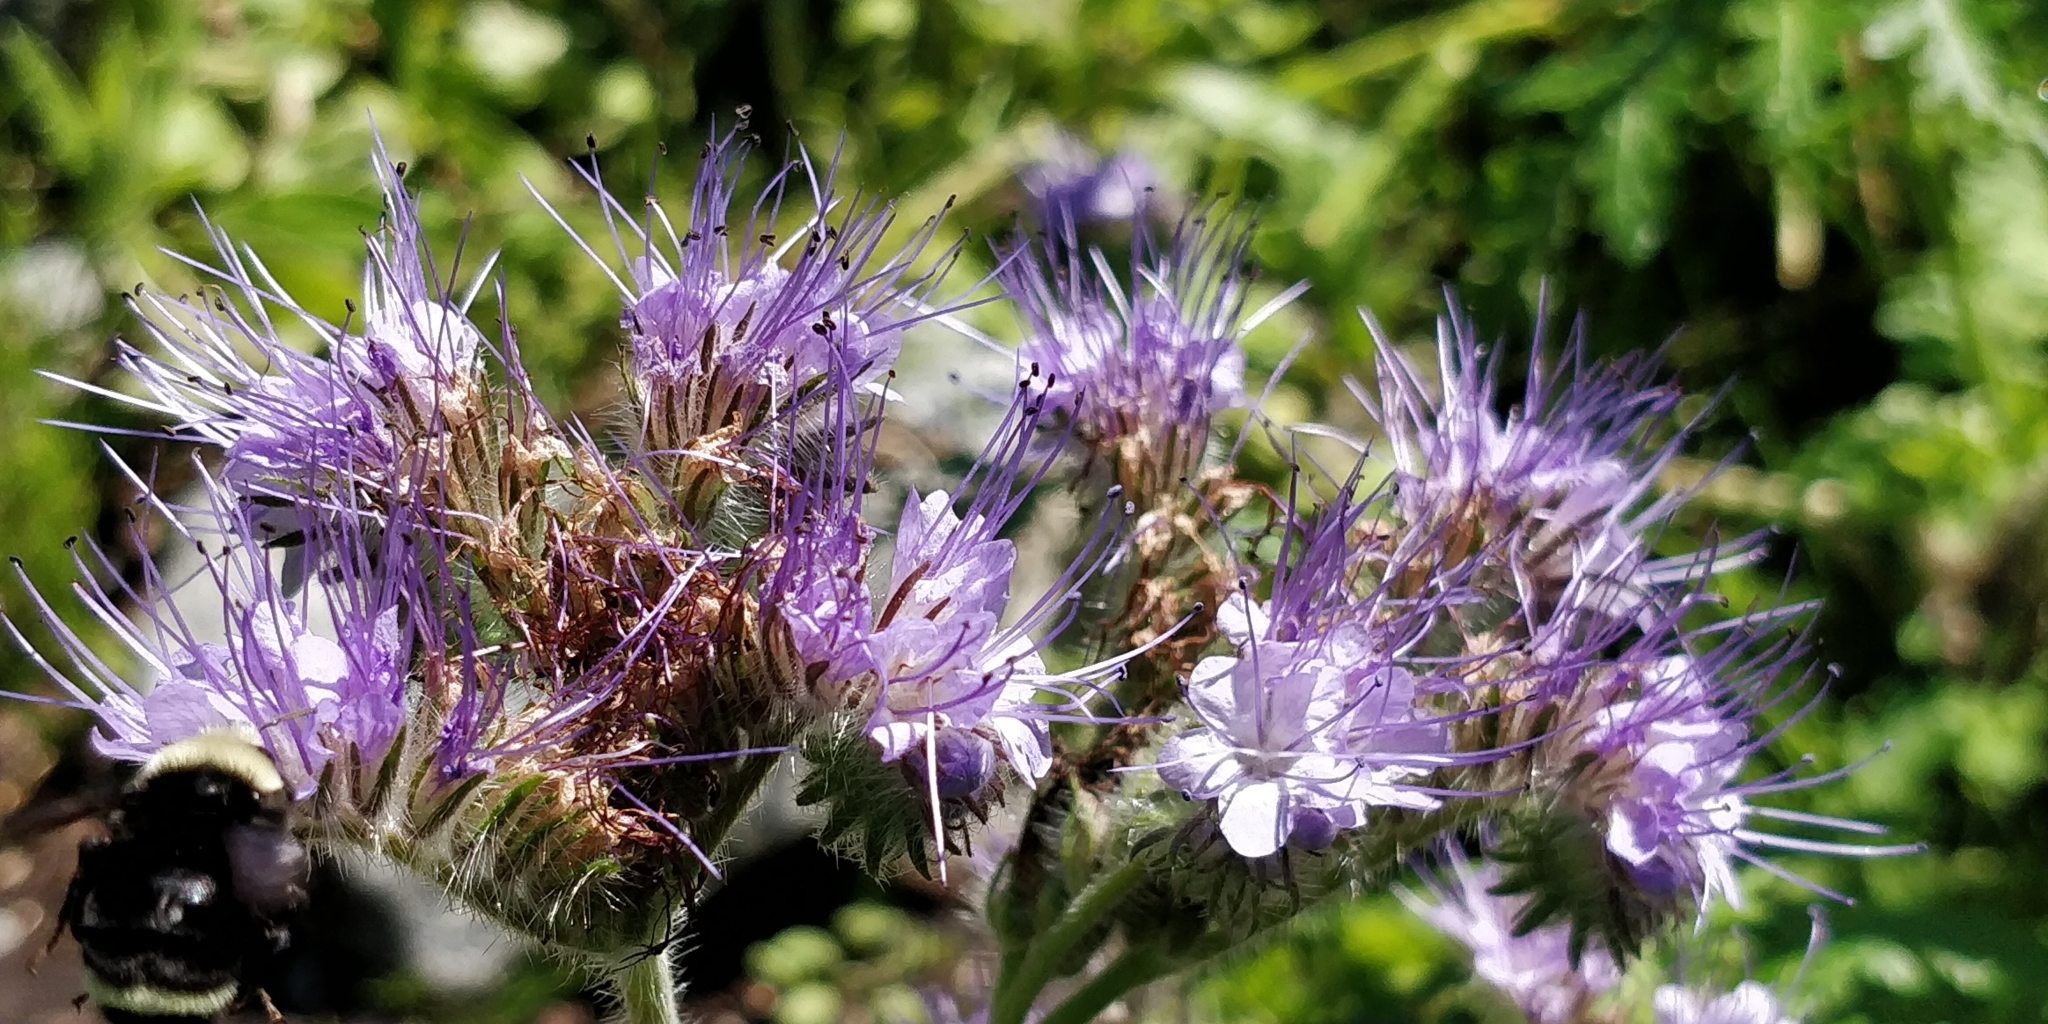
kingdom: Animalia
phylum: Arthropoda
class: Insecta
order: Hymenoptera
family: Apidae
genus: Bombus
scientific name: Bombus vosnesenskii
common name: Vosnesensky bumble bee
